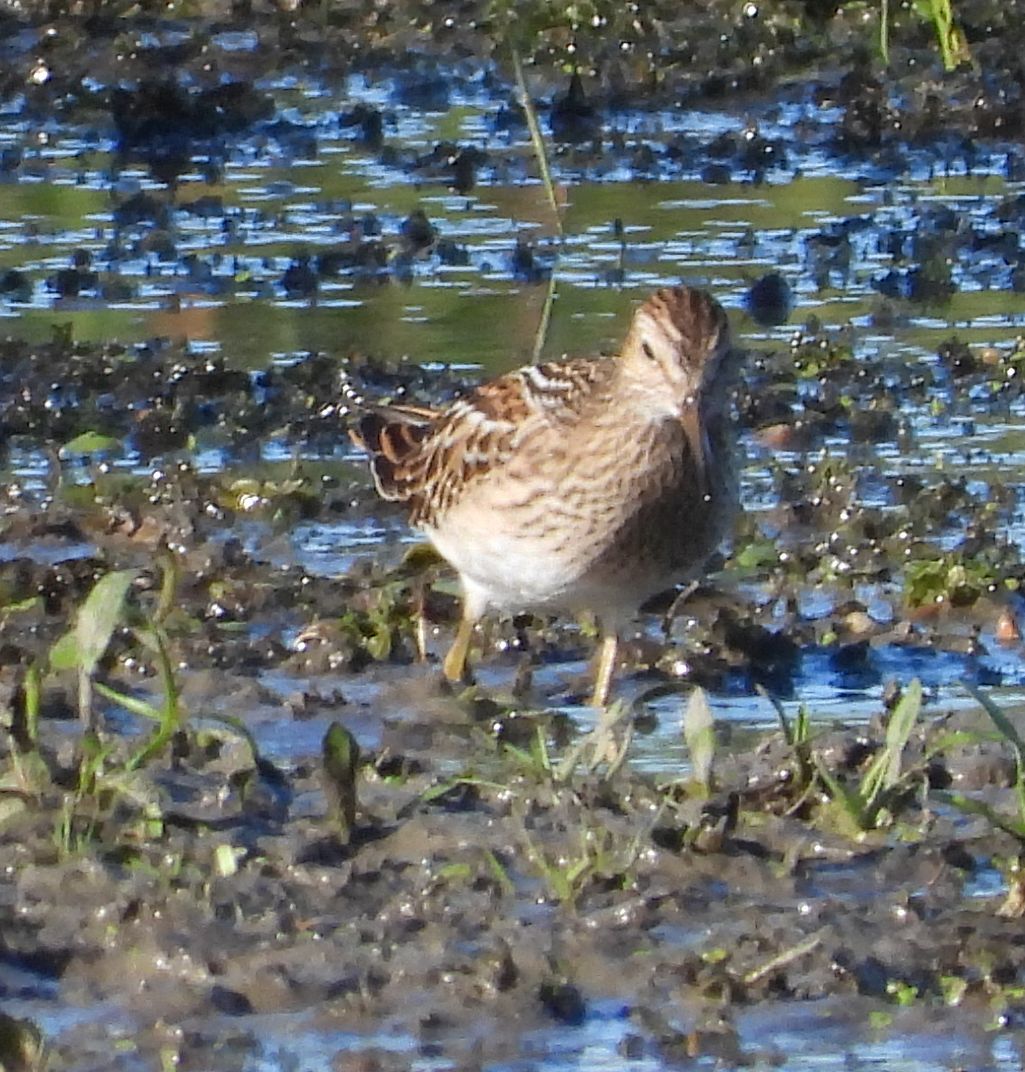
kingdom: Animalia
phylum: Chordata
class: Aves
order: Charadriiformes
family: Scolopacidae
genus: Calidris
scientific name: Calidris melanotos
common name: Pectoral sandpiper
